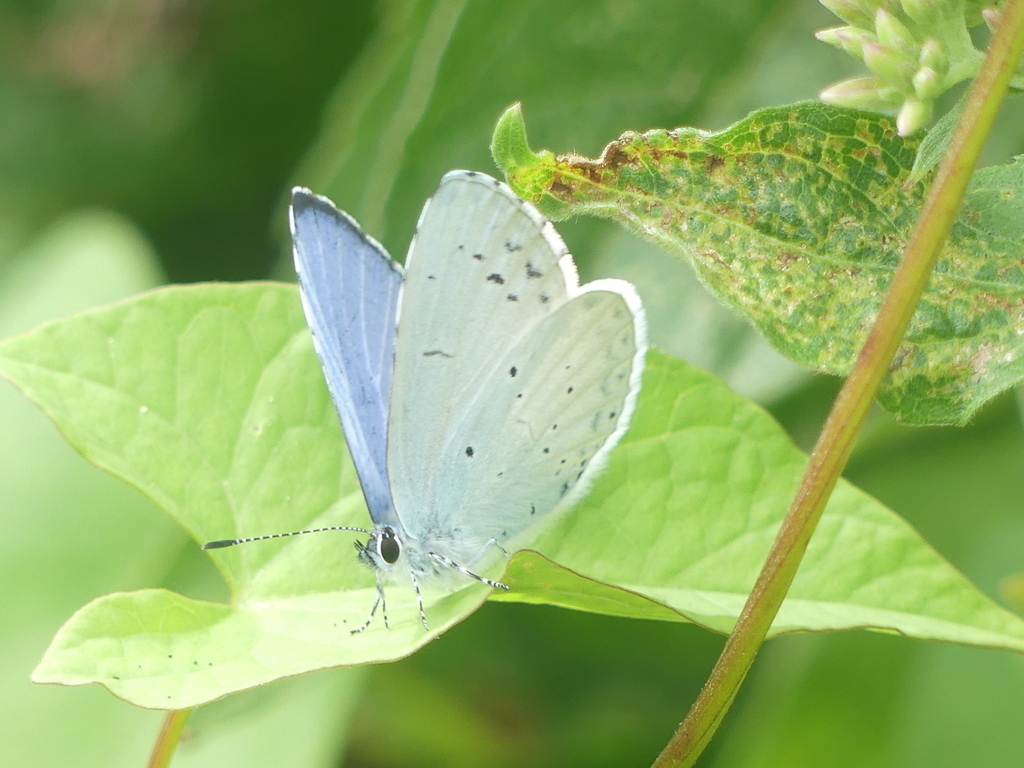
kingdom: Animalia
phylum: Arthropoda
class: Insecta
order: Lepidoptera
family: Lycaenidae
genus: Celastrina
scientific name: Celastrina argiolus
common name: Holly blue
